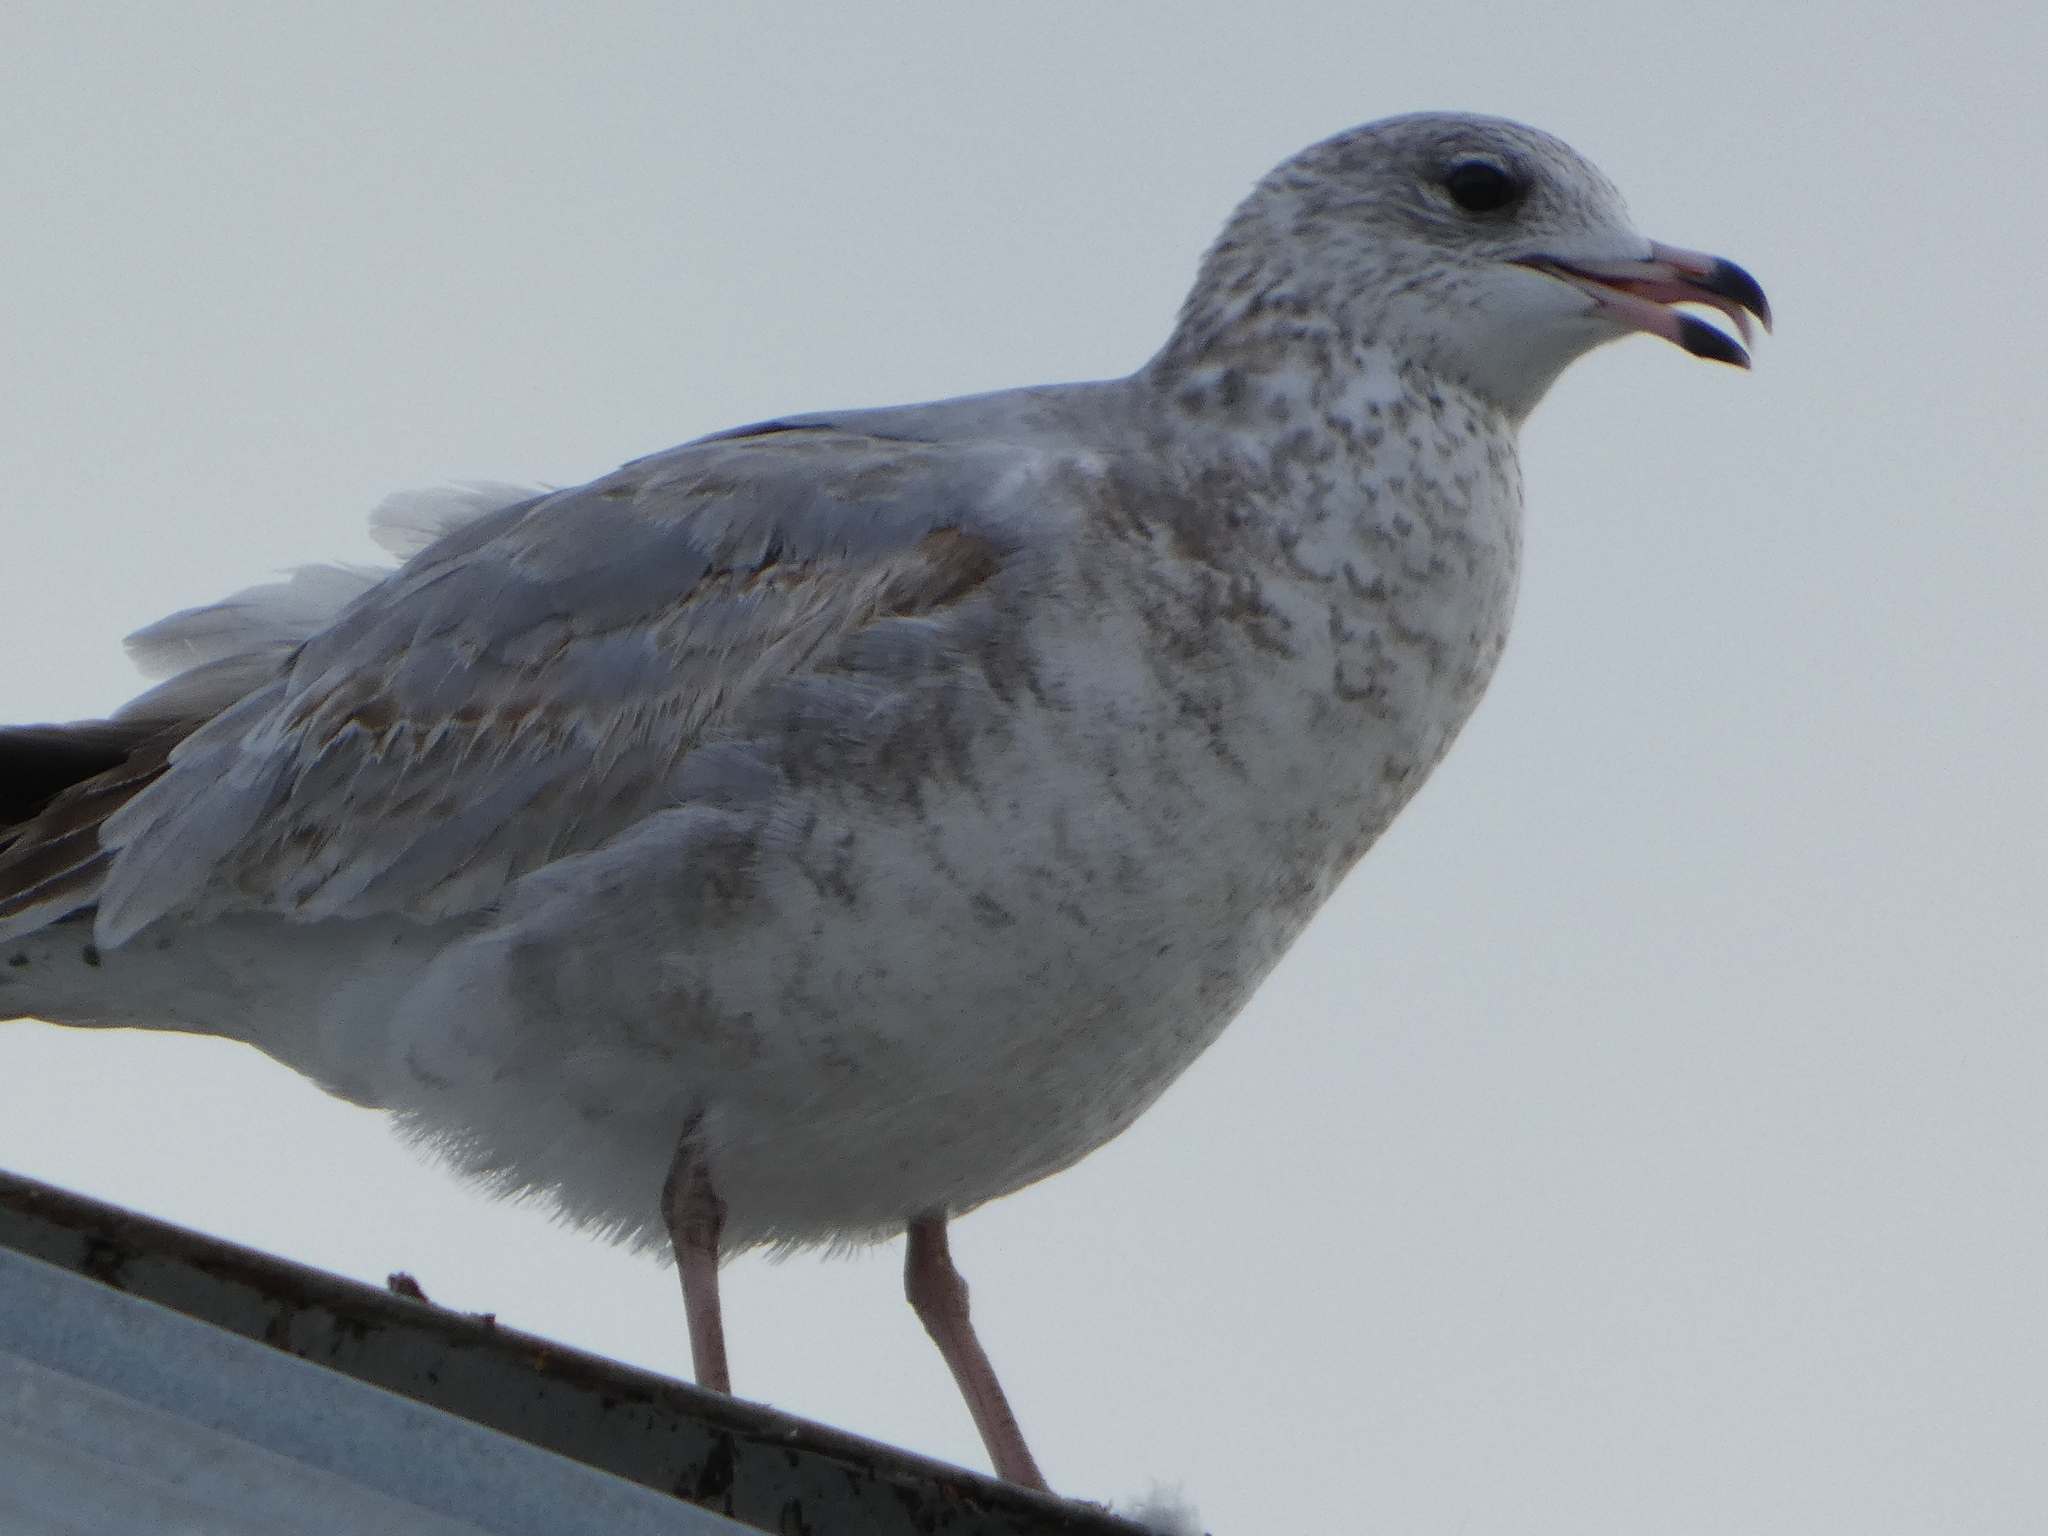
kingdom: Animalia
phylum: Chordata
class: Aves
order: Charadriiformes
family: Laridae
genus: Larus
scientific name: Larus delawarensis
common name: Ring-billed gull
